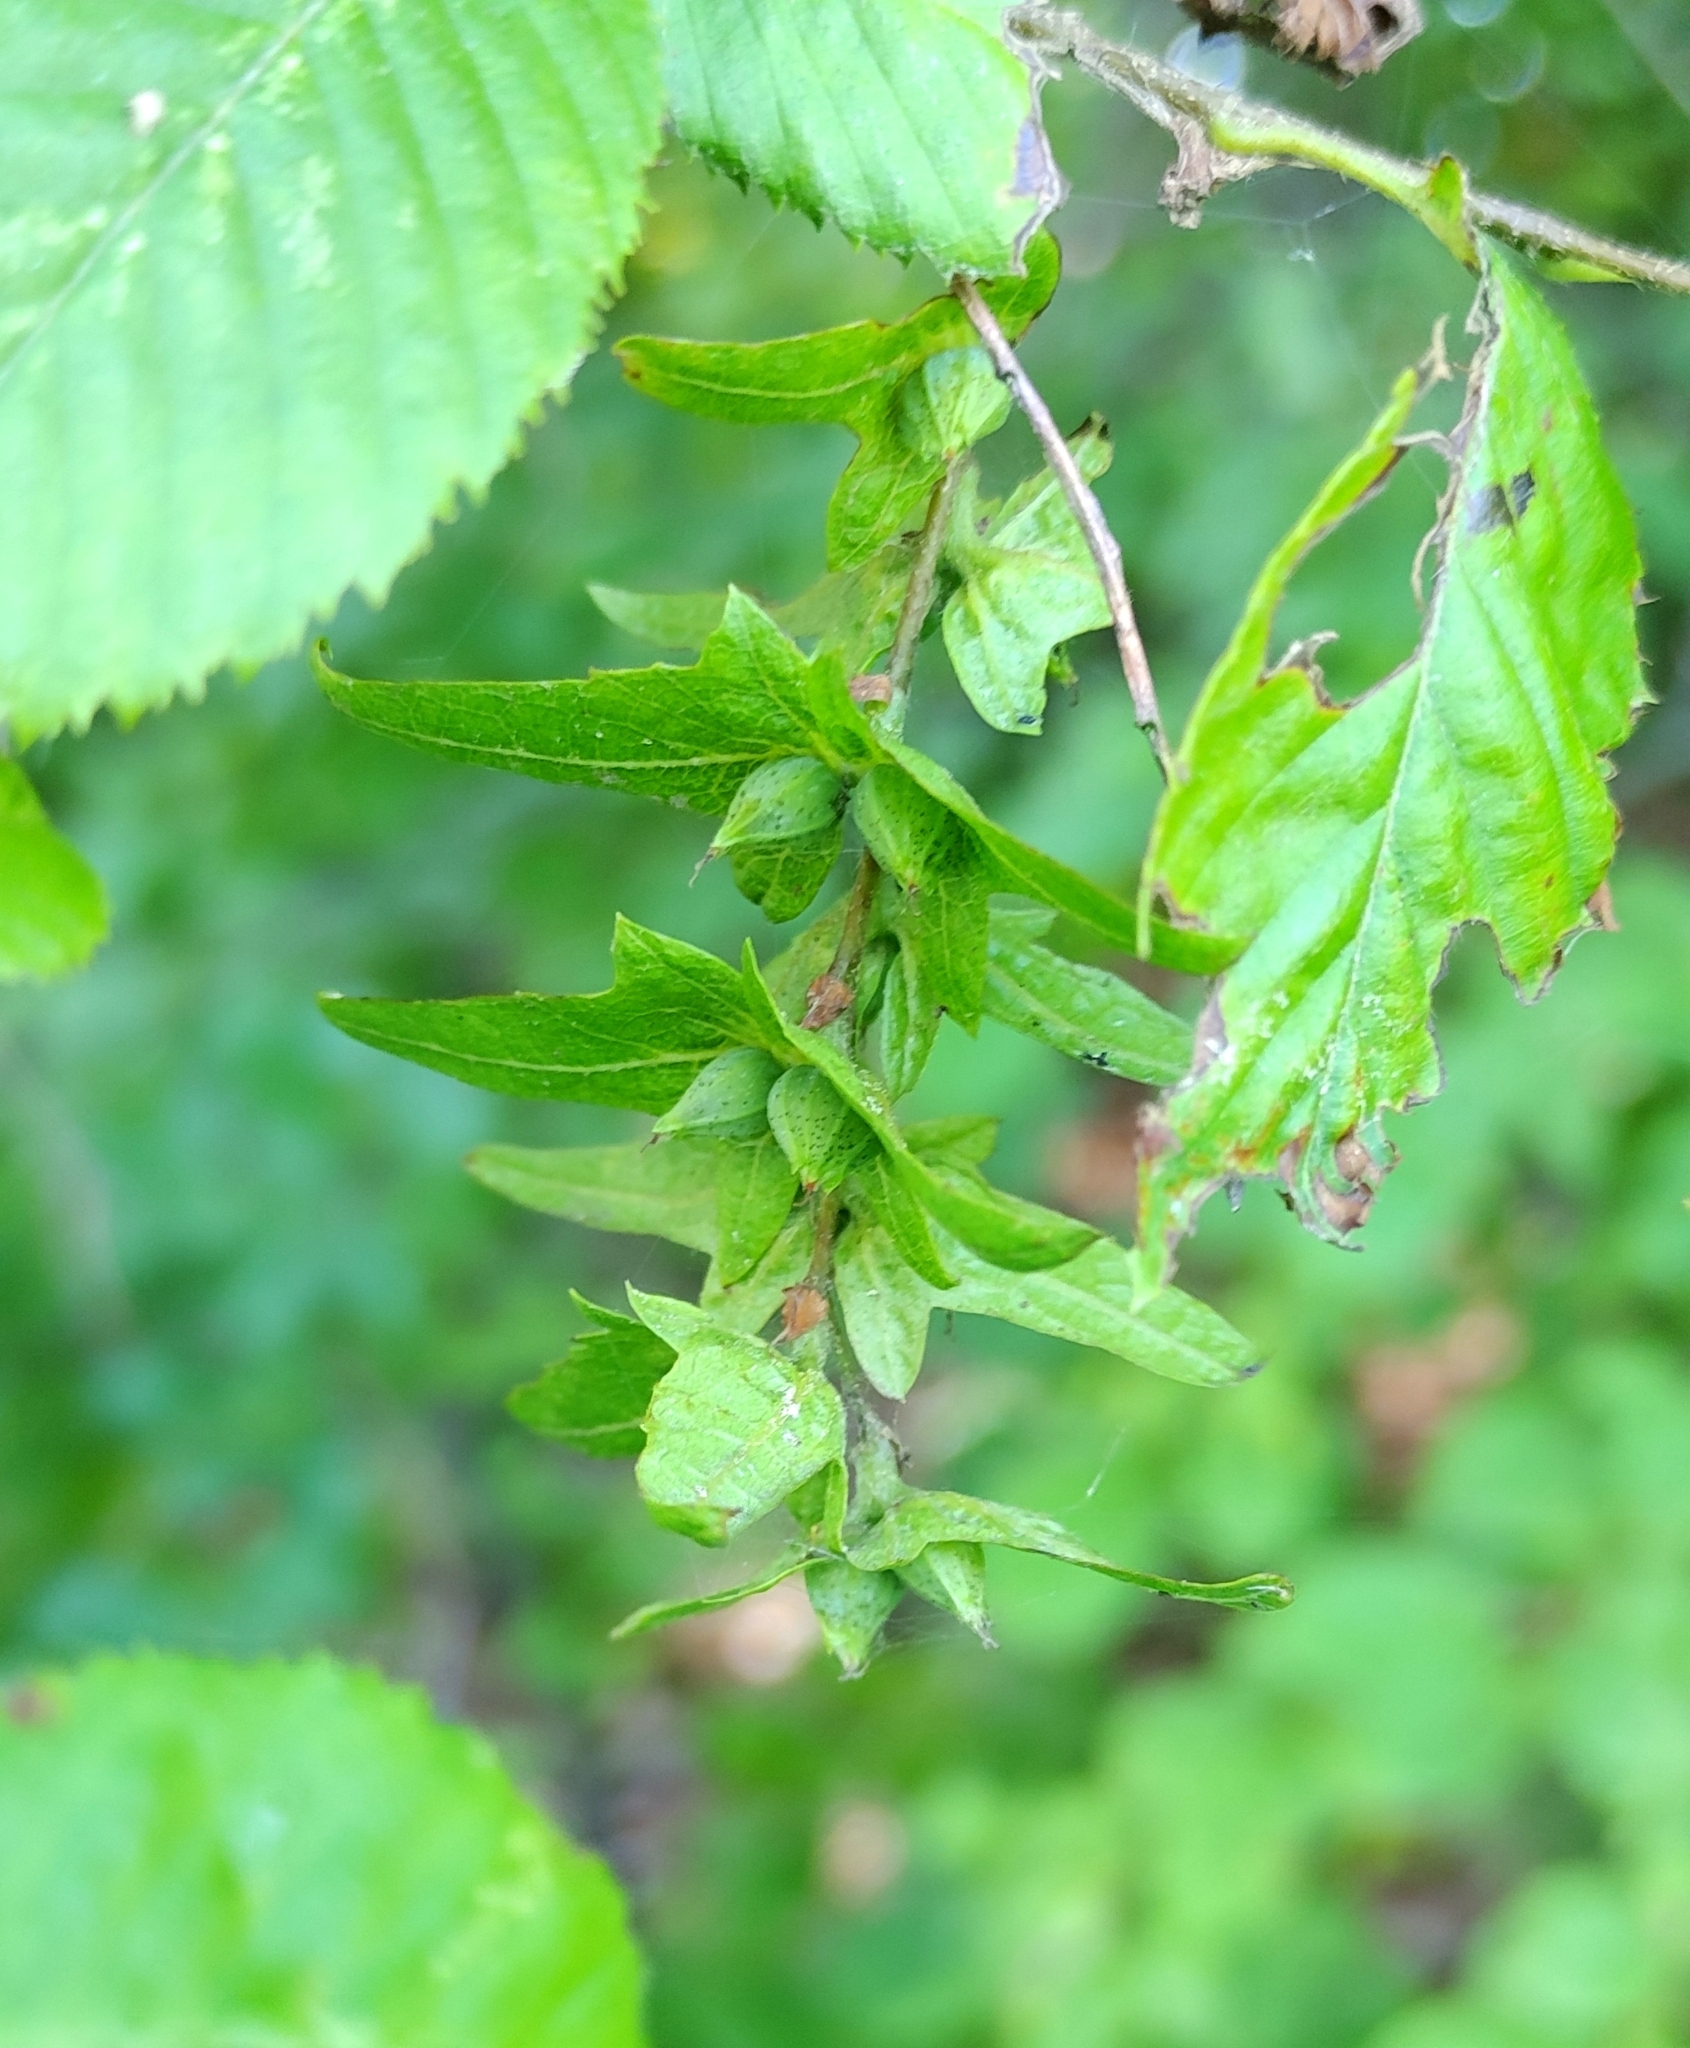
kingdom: Plantae
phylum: Tracheophyta
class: Magnoliopsida
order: Fagales
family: Betulaceae
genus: Carpinus
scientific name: Carpinus caroliniana
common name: American hornbeam
